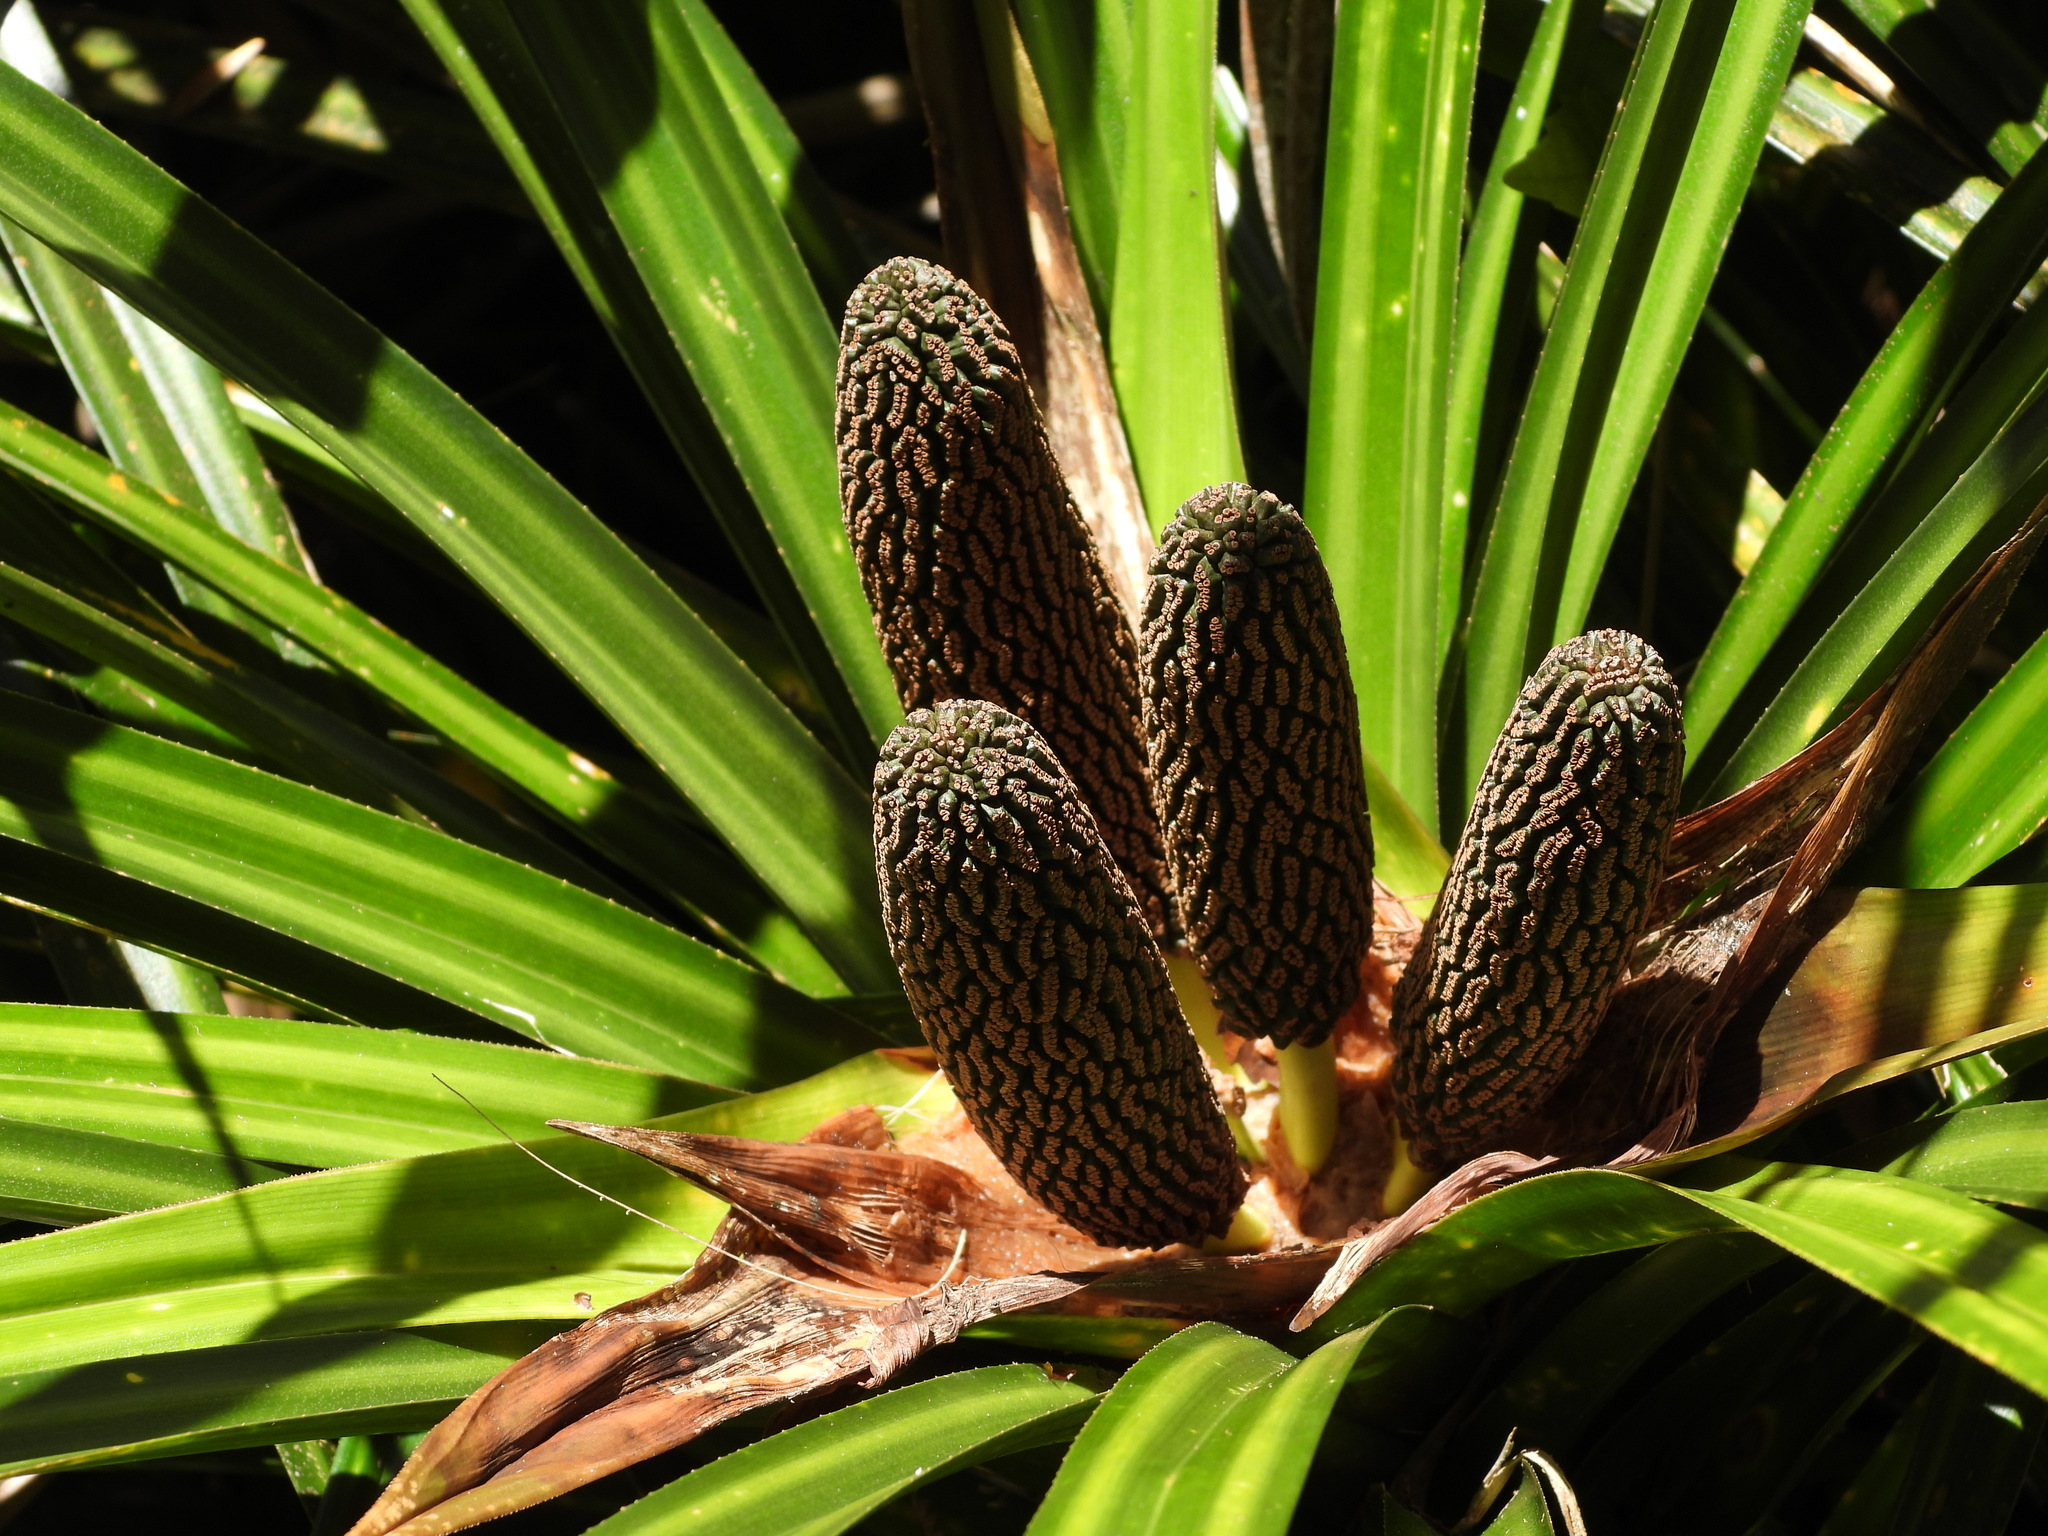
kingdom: Plantae
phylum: Tracheophyta
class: Liliopsida
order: Pandanales
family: Pandanaceae
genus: Freycinetia
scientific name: Freycinetia banksii
